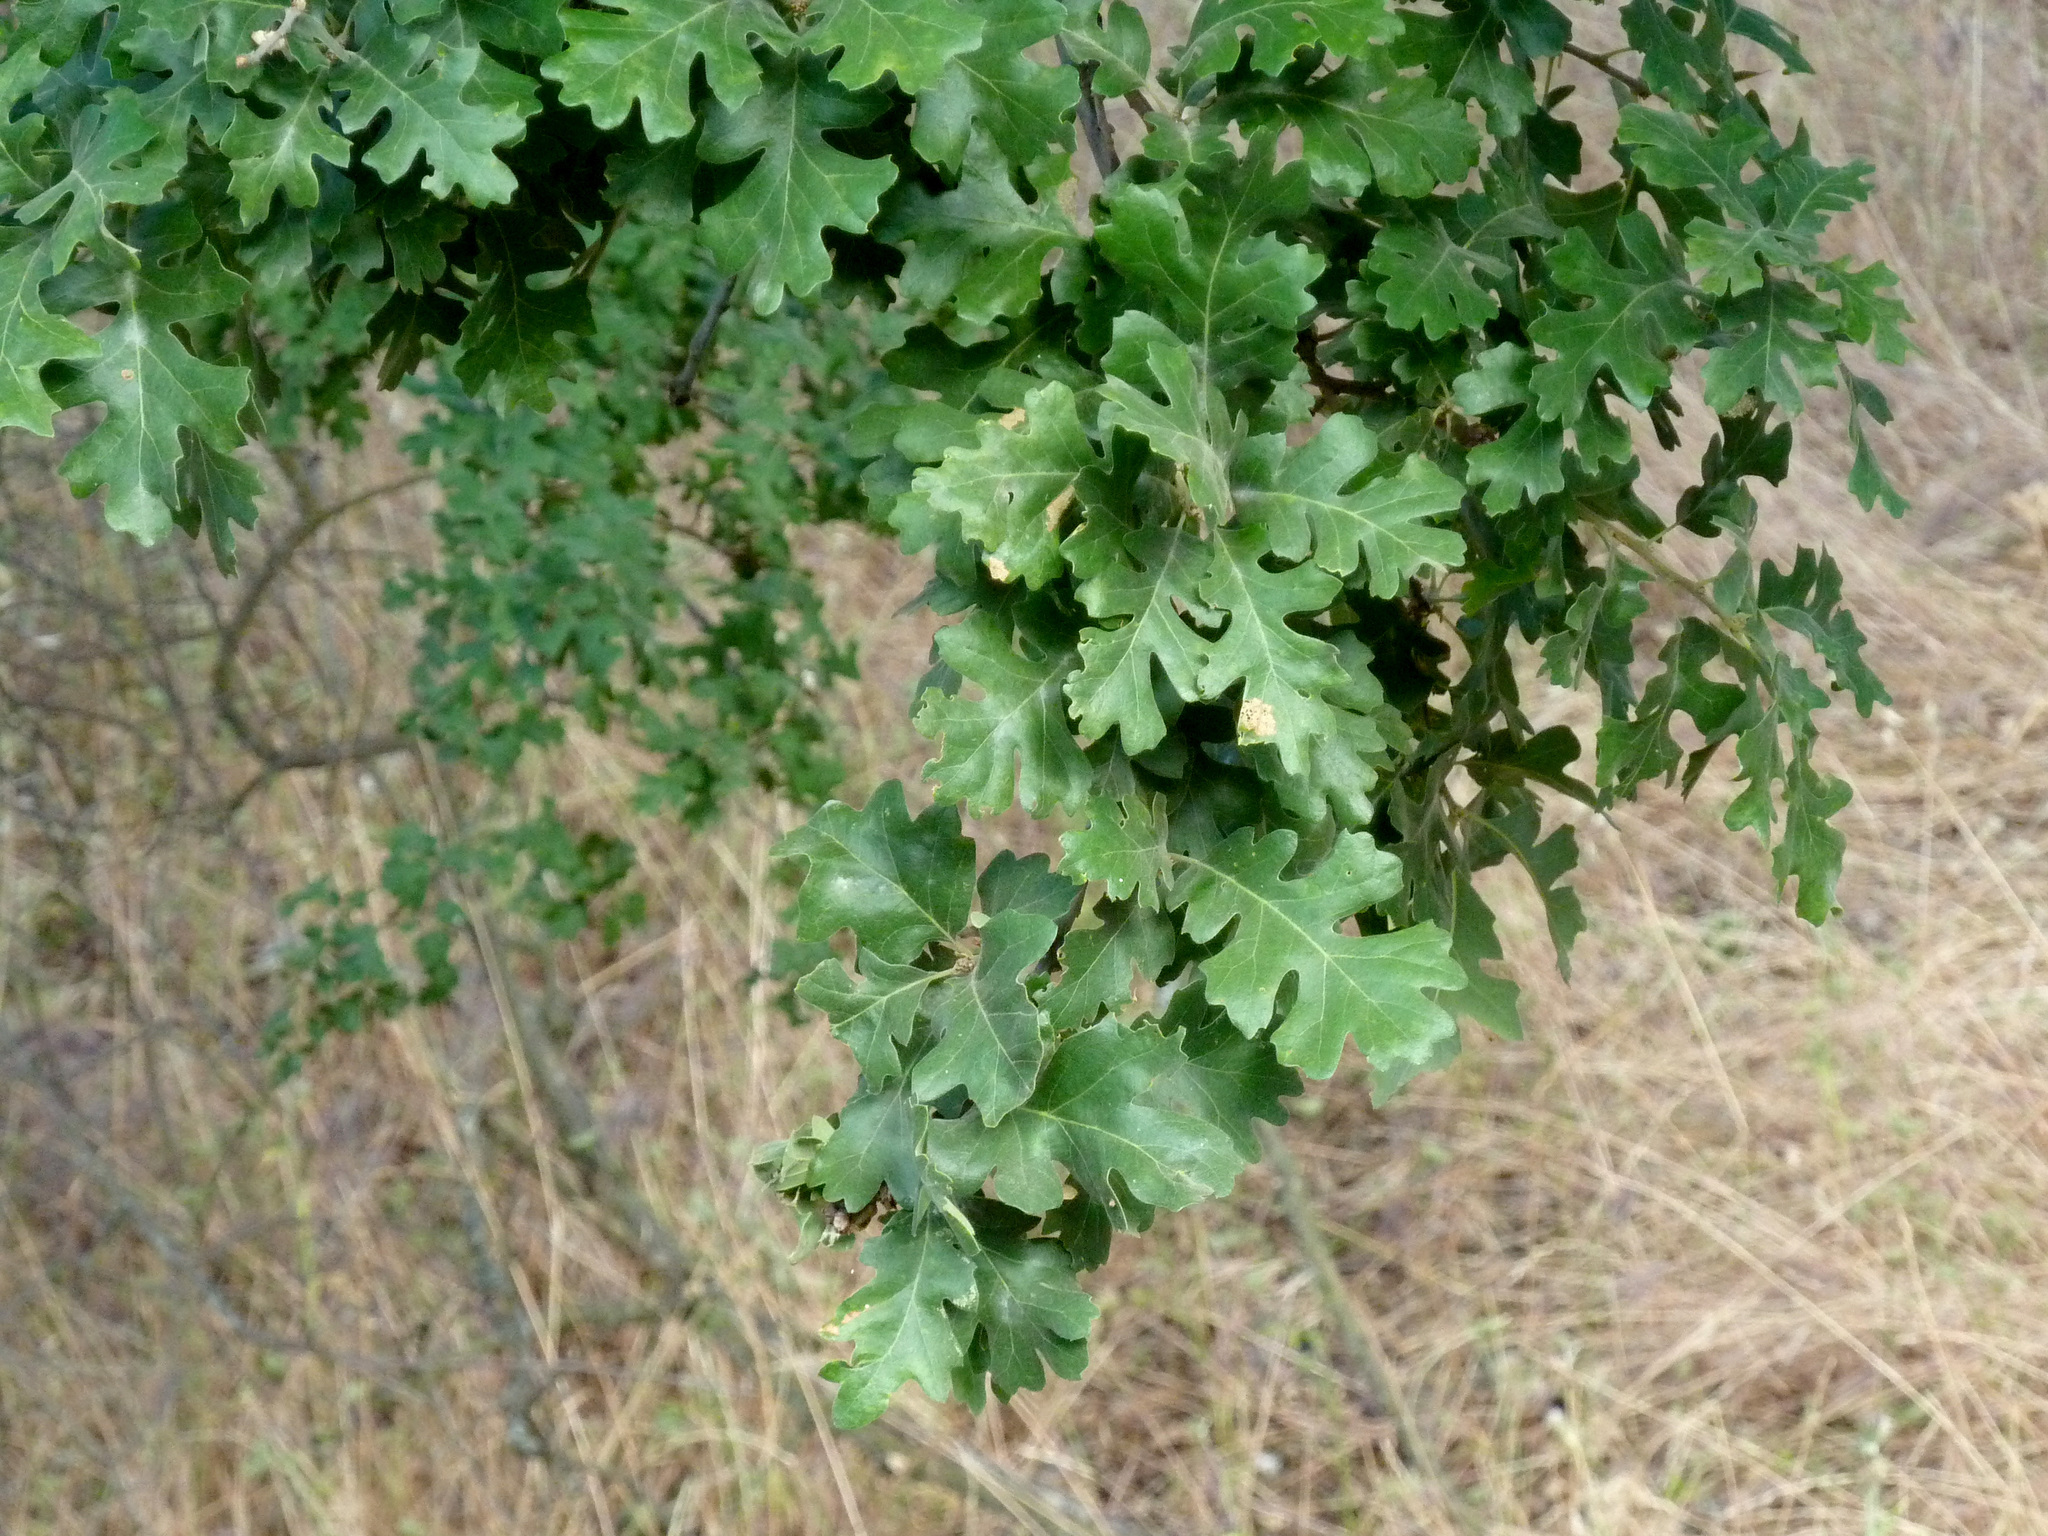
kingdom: Plantae
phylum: Tracheophyta
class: Magnoliopsida
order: Fagales
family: Fagaceae
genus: Quercus
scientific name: Quercus lobata
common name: Valley oak
